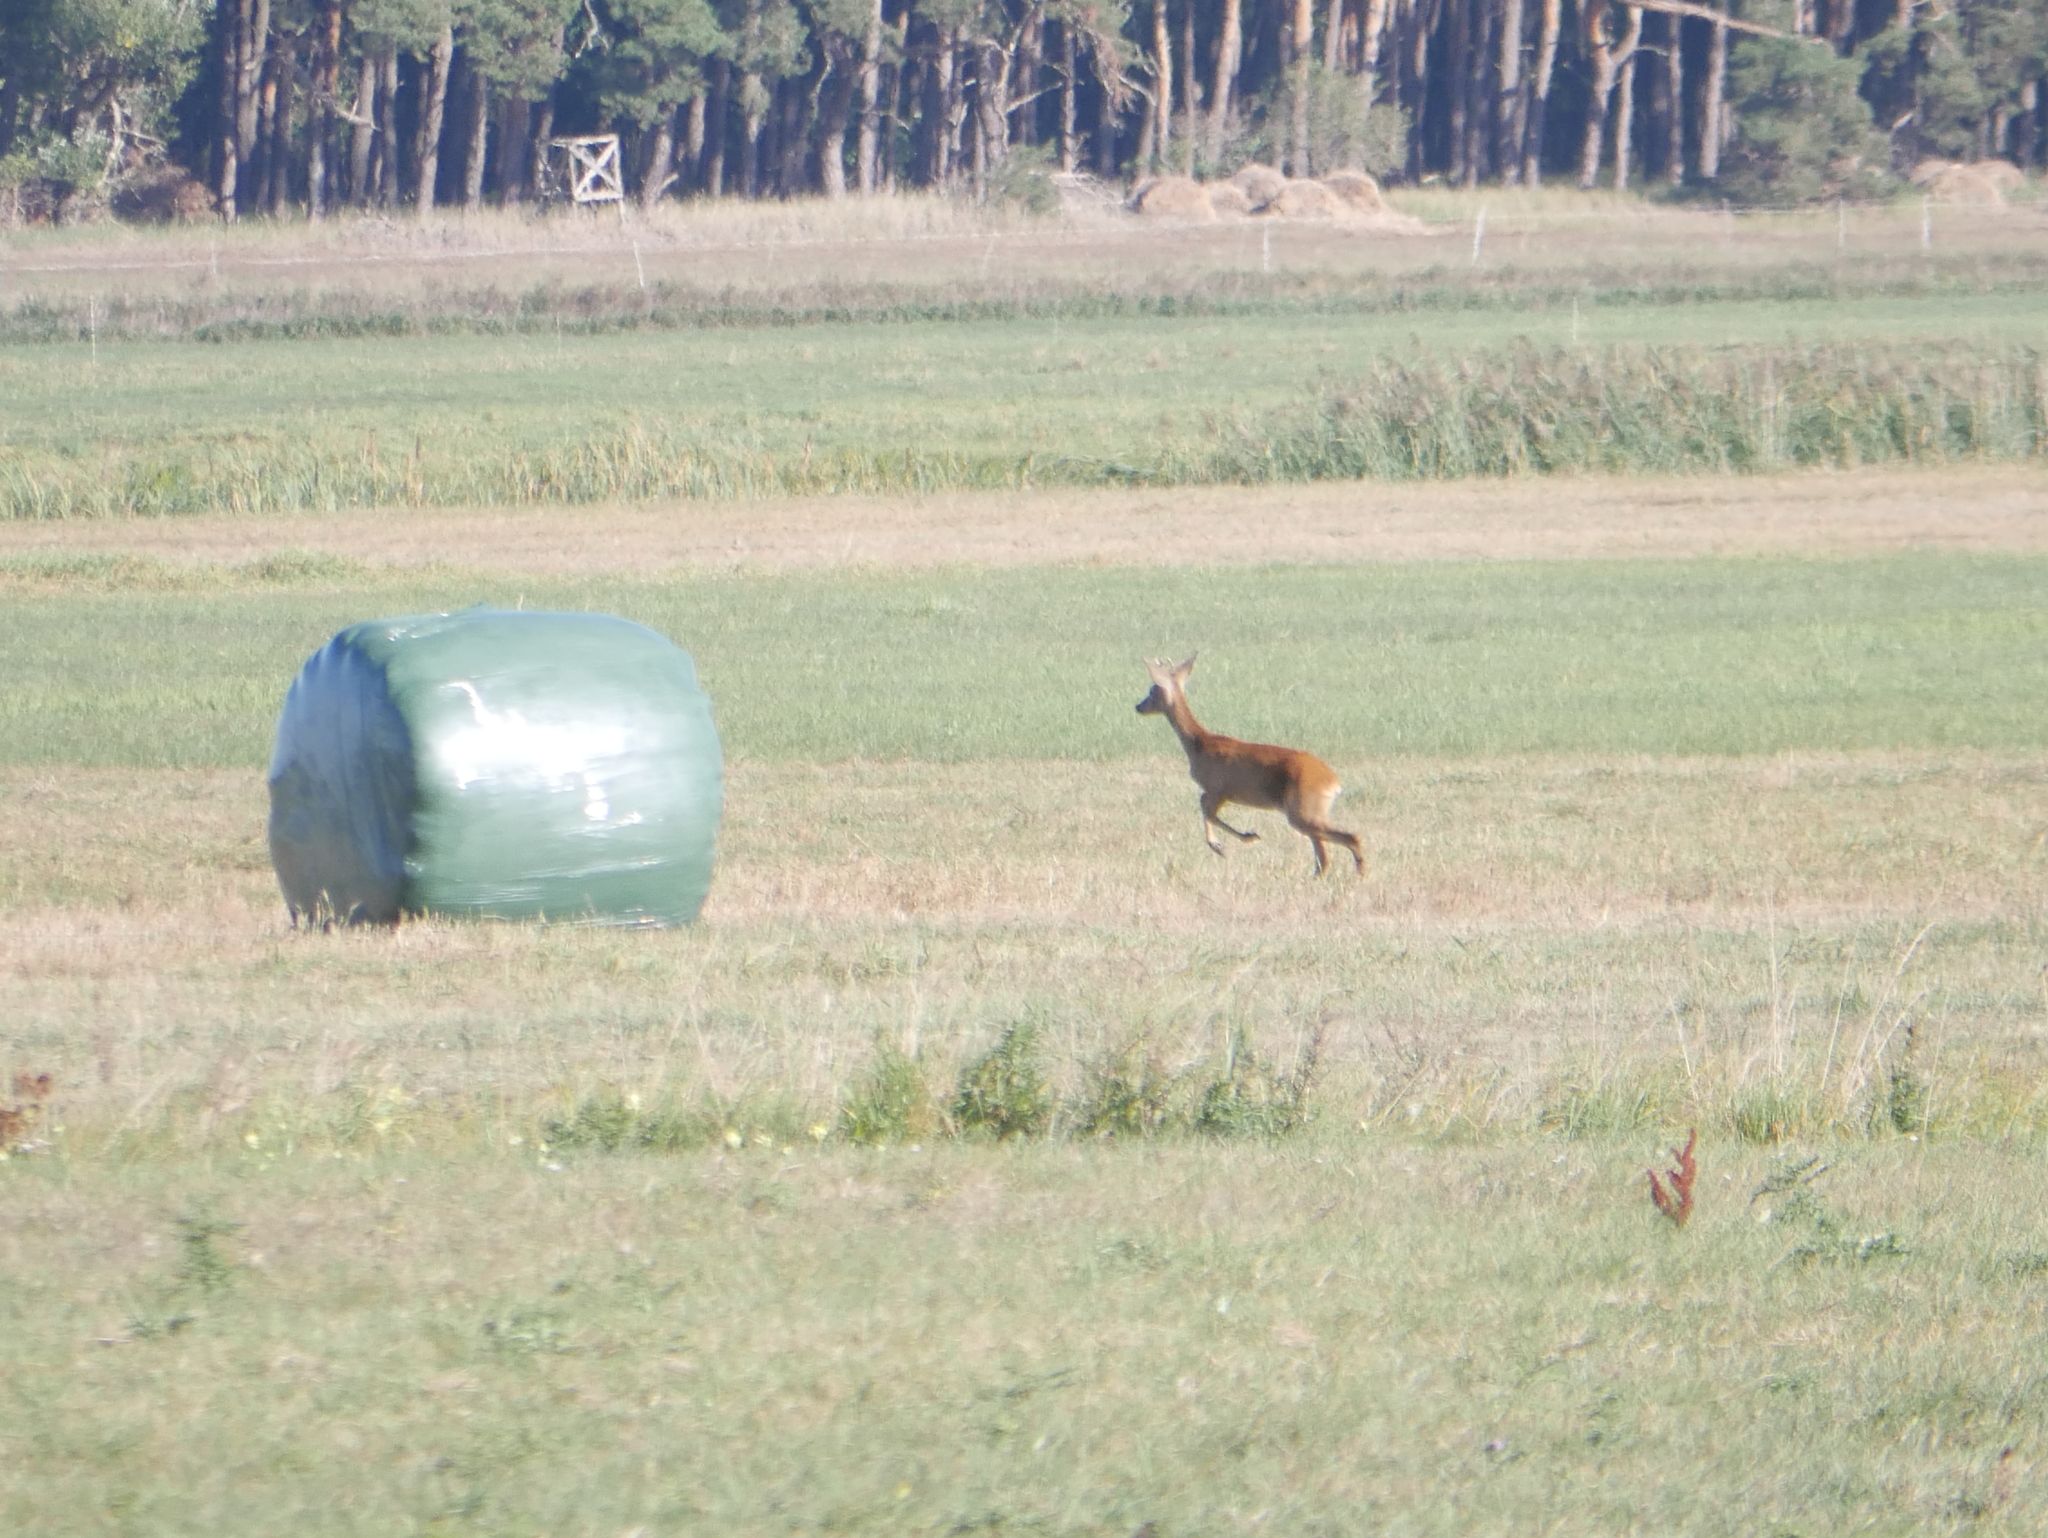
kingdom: Animalia
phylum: Chordata
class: Mammalia
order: Artiodactyla
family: Cervidae
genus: Capreolus
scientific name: Capreolus capreolus
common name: Western roe deer
